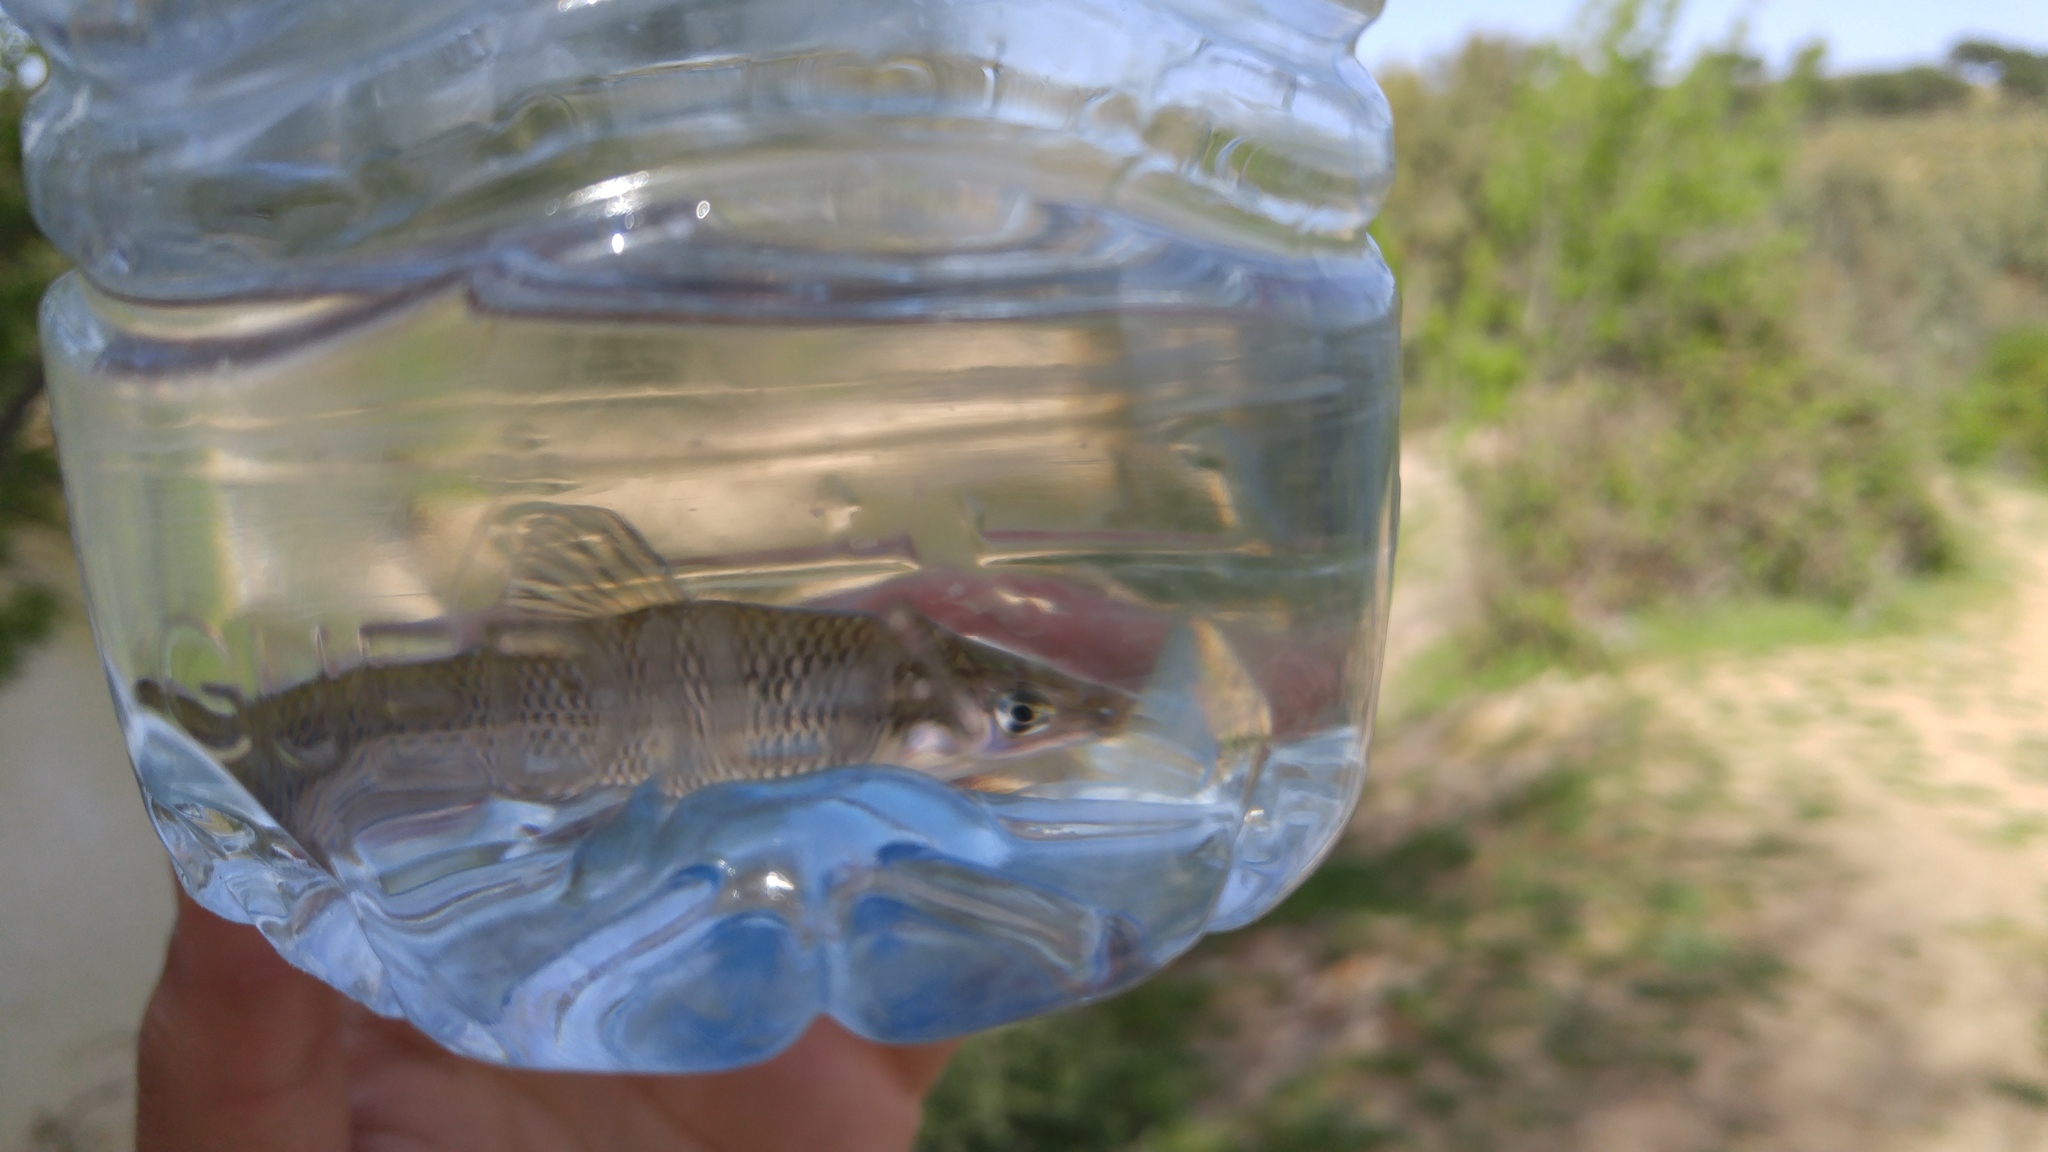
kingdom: Animalia
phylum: Chordata
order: Cypriniformes
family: Cyprinidae
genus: Pseudorasbora
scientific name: Pseudorasbora parva
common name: Topmouth gudgeon
